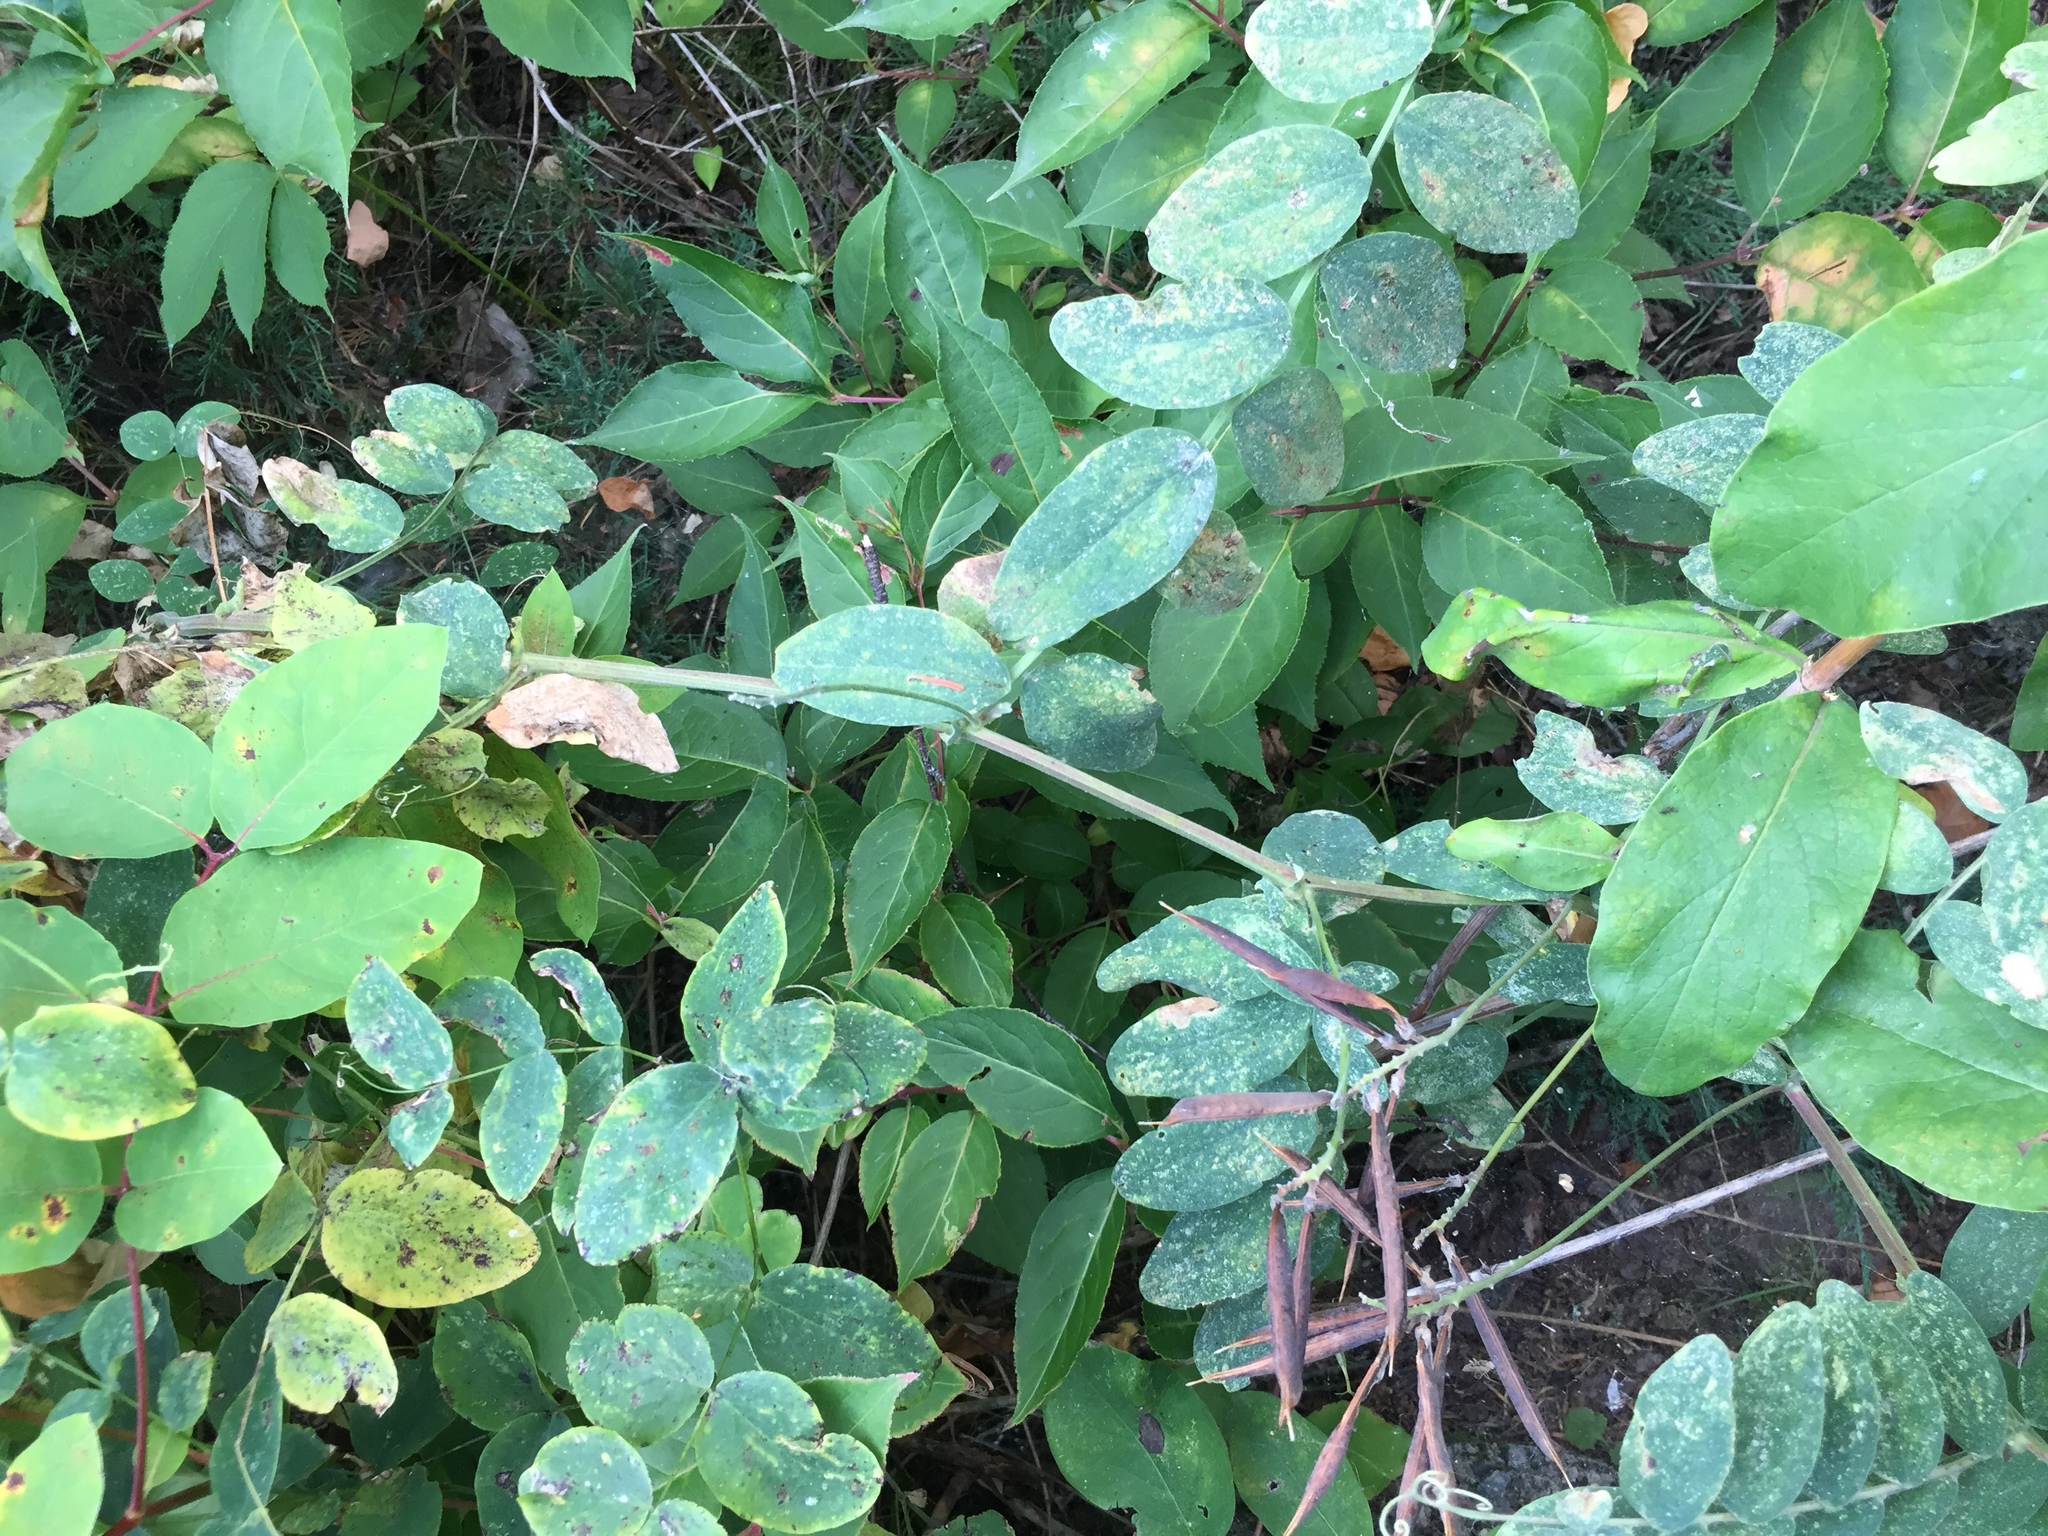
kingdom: Plantae
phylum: Tracheophyta
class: Magnoliopsida
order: Fabales
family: Fabaceae
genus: Lathyrus
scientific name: Lathyrus venosus
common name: Forest-pea
